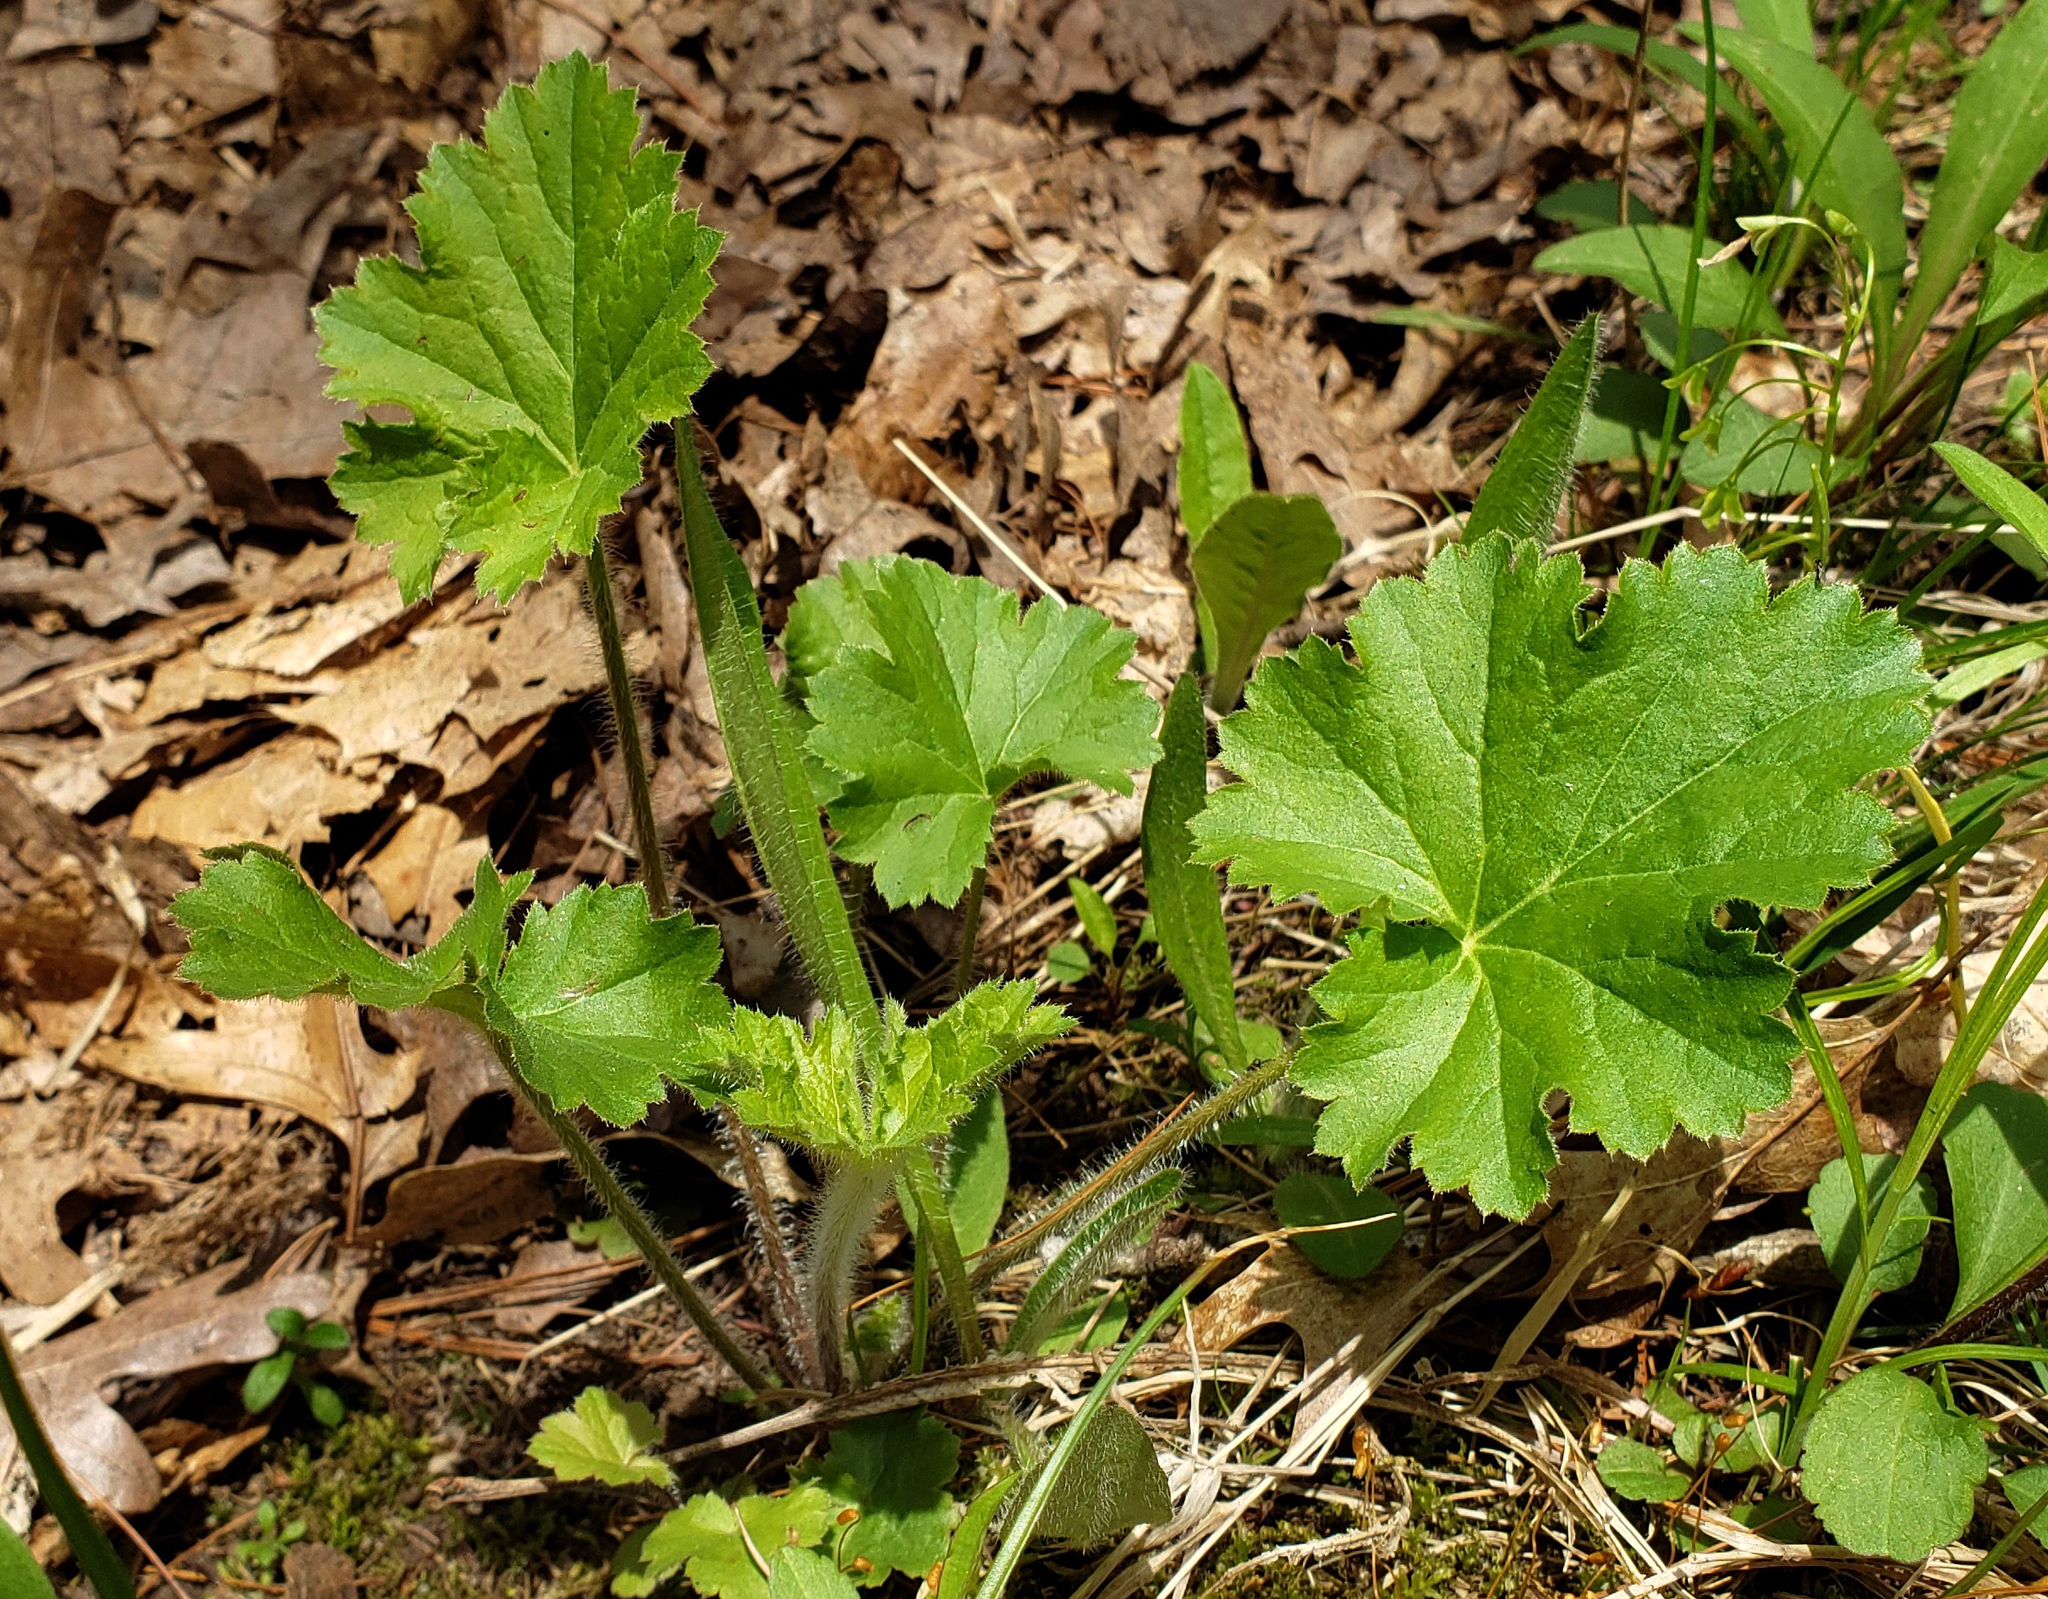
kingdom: Plantae
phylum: Tracheophyta
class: Magnoliopsida
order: Saxifragales
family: Saxifragaceae
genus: Heuchera
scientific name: Heuchera richardsonii
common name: Richardson's alumroot
